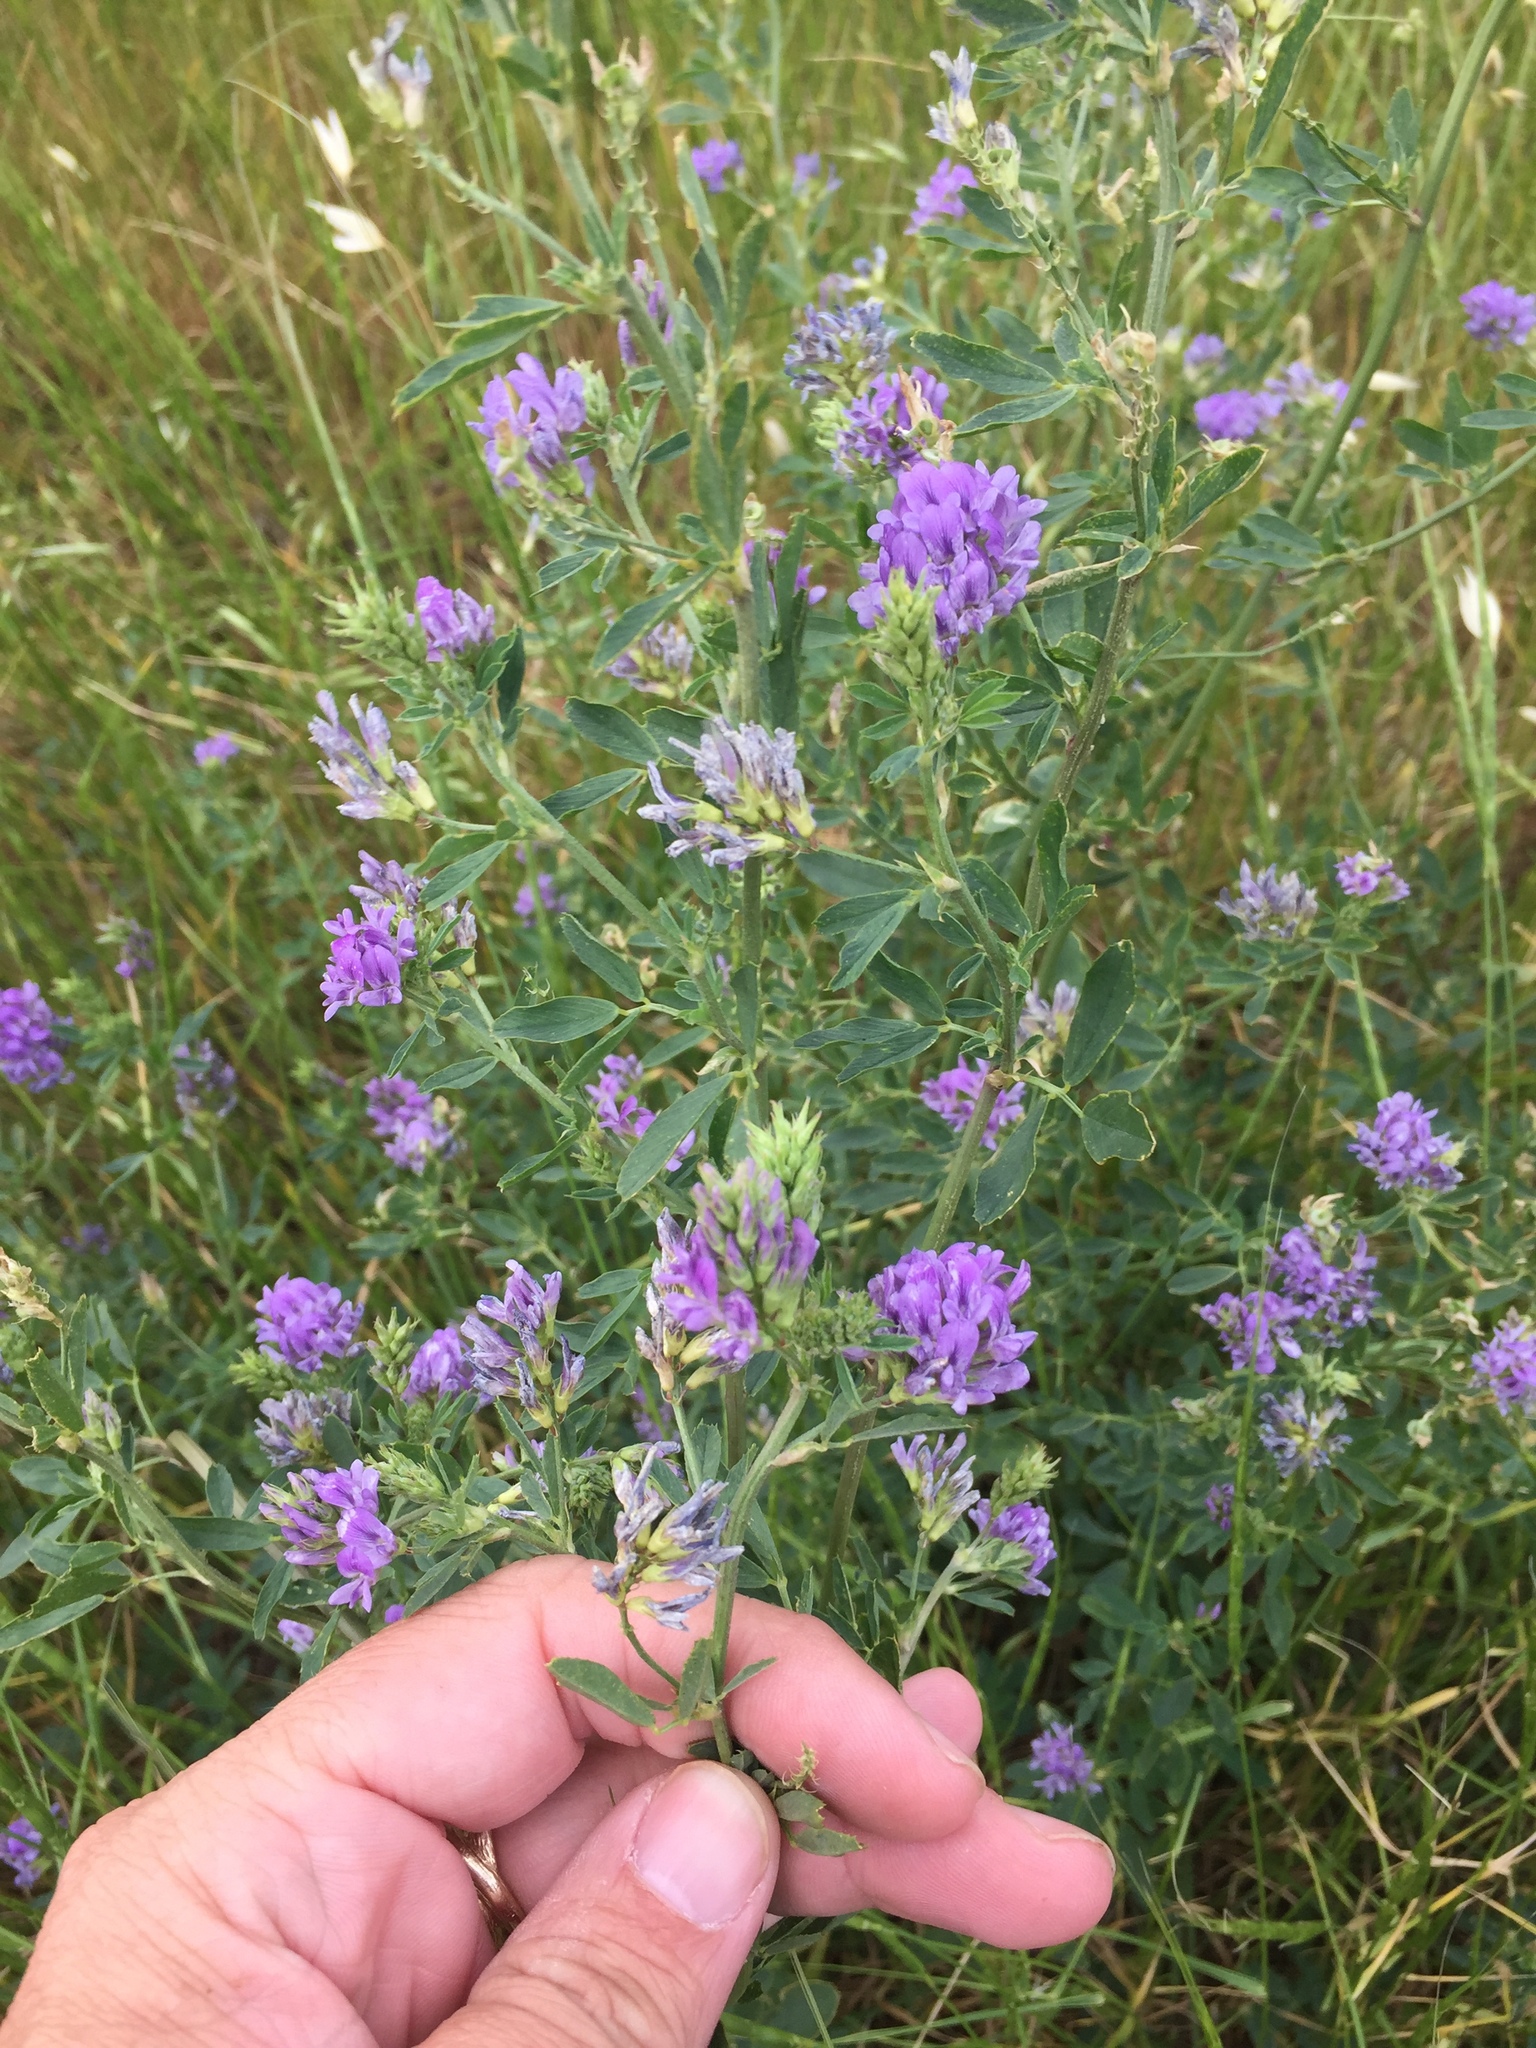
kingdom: Plantae
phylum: Tracheophyta
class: Magnoliopsida
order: Fabales
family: Fabaceae
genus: Medicago
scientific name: Medicago sativa
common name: Alfalfa
